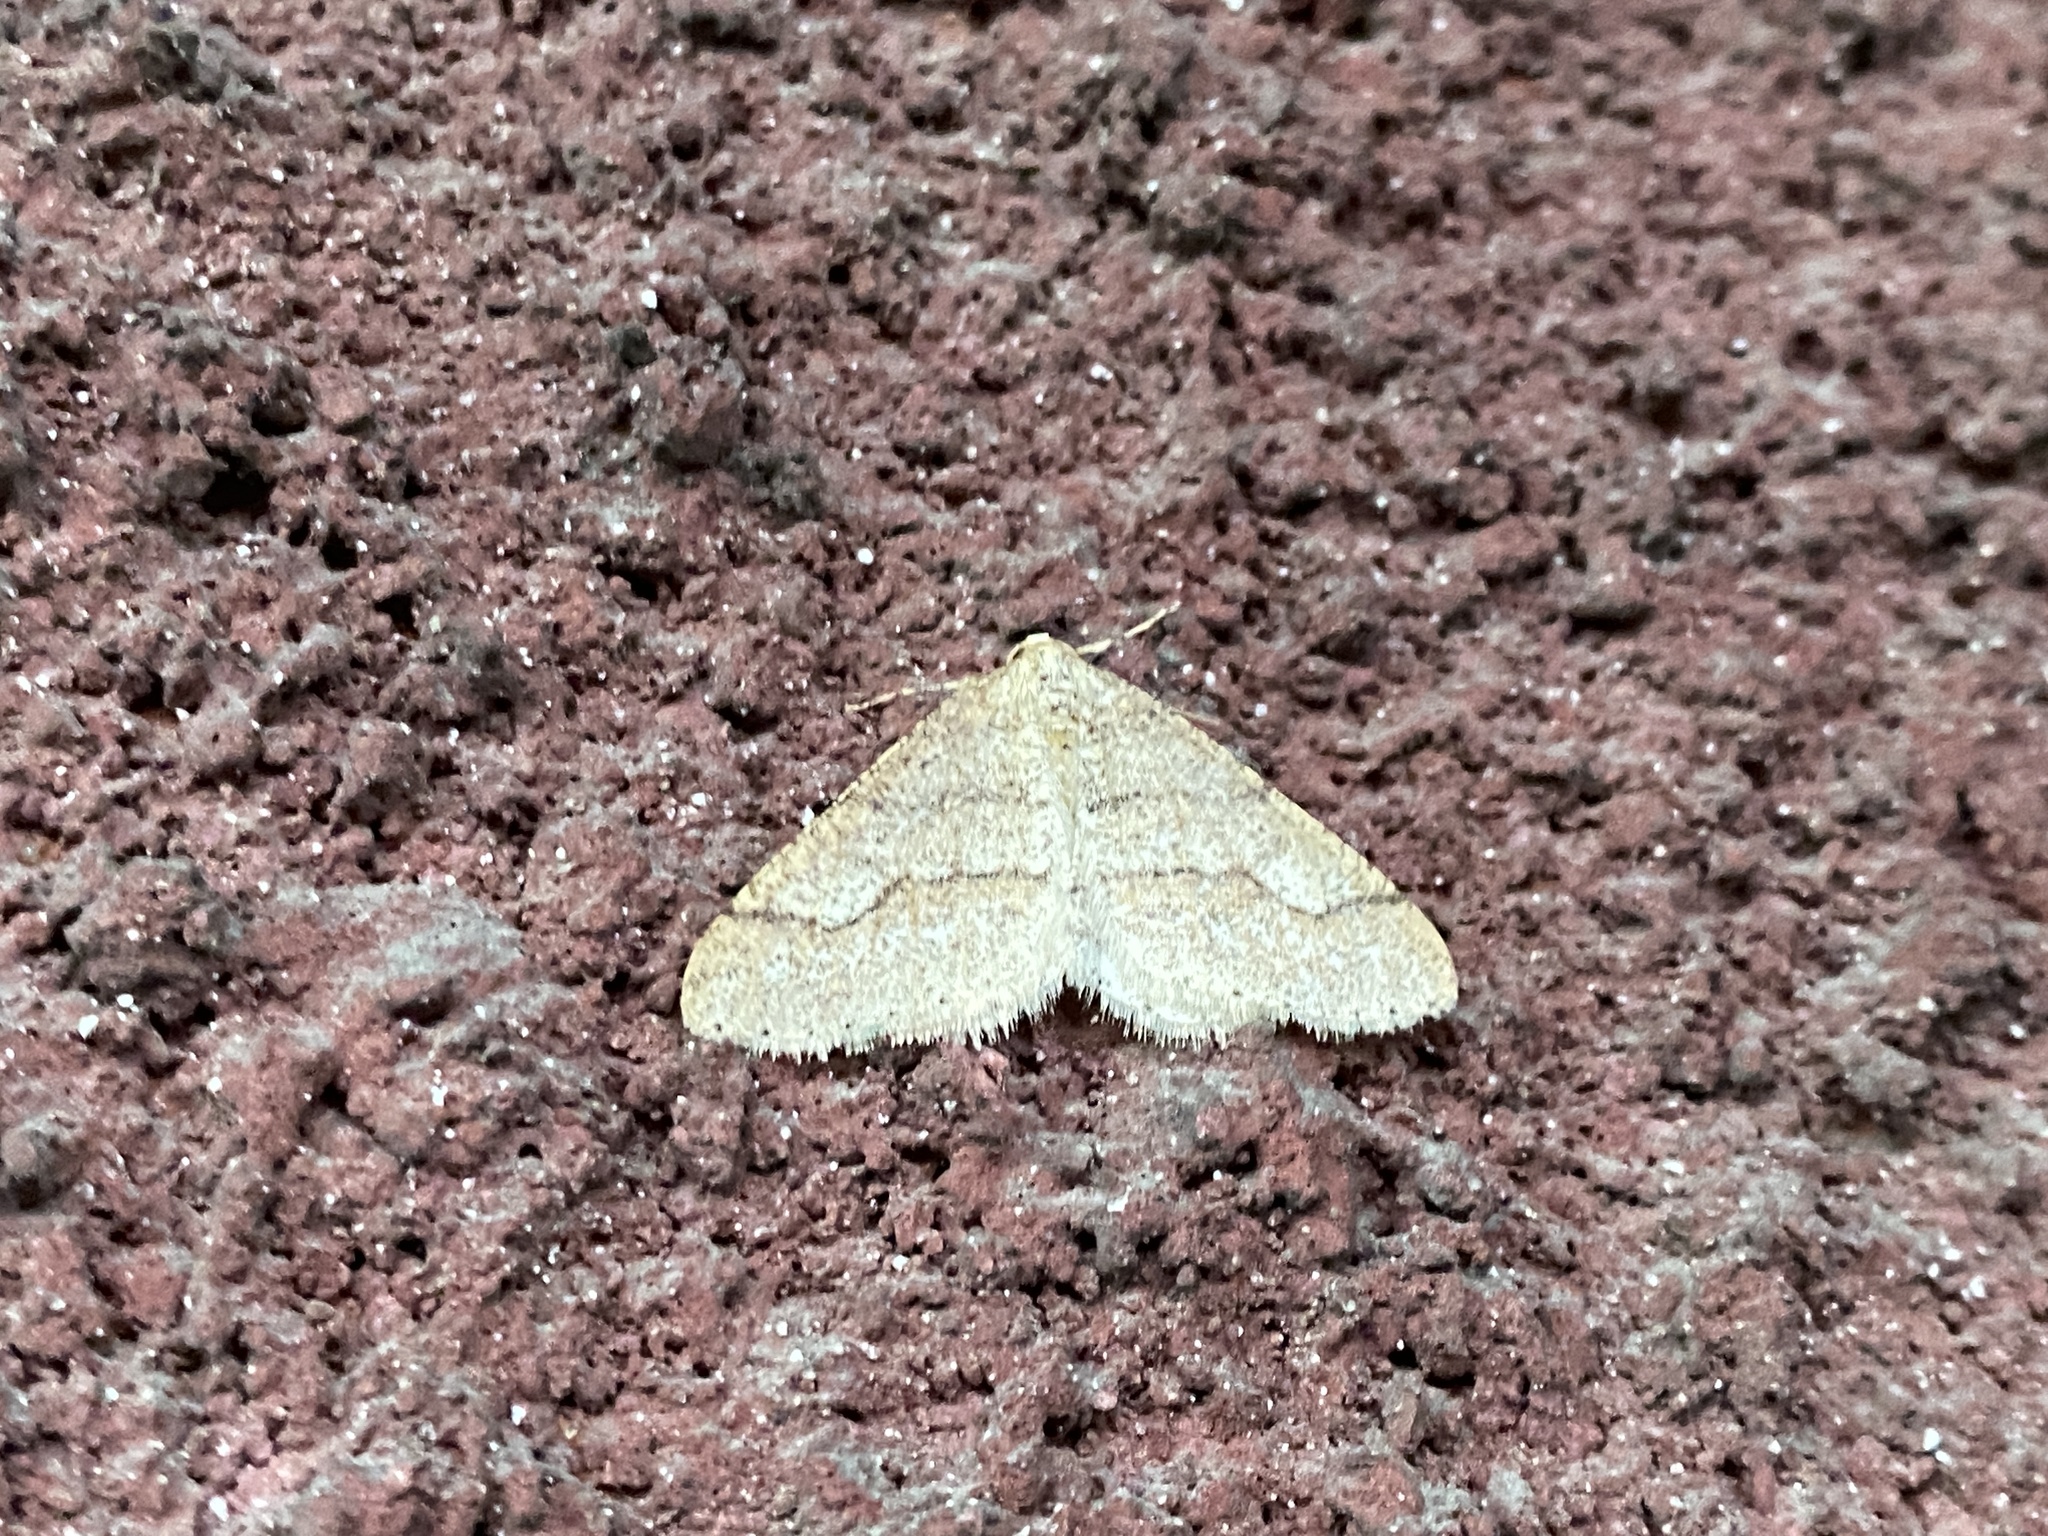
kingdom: Animalia
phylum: Arthropoda
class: Insecta
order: Lepidoptera
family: Geometridae
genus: Agriopis
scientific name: Agriopis marginaria
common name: Dotted border
